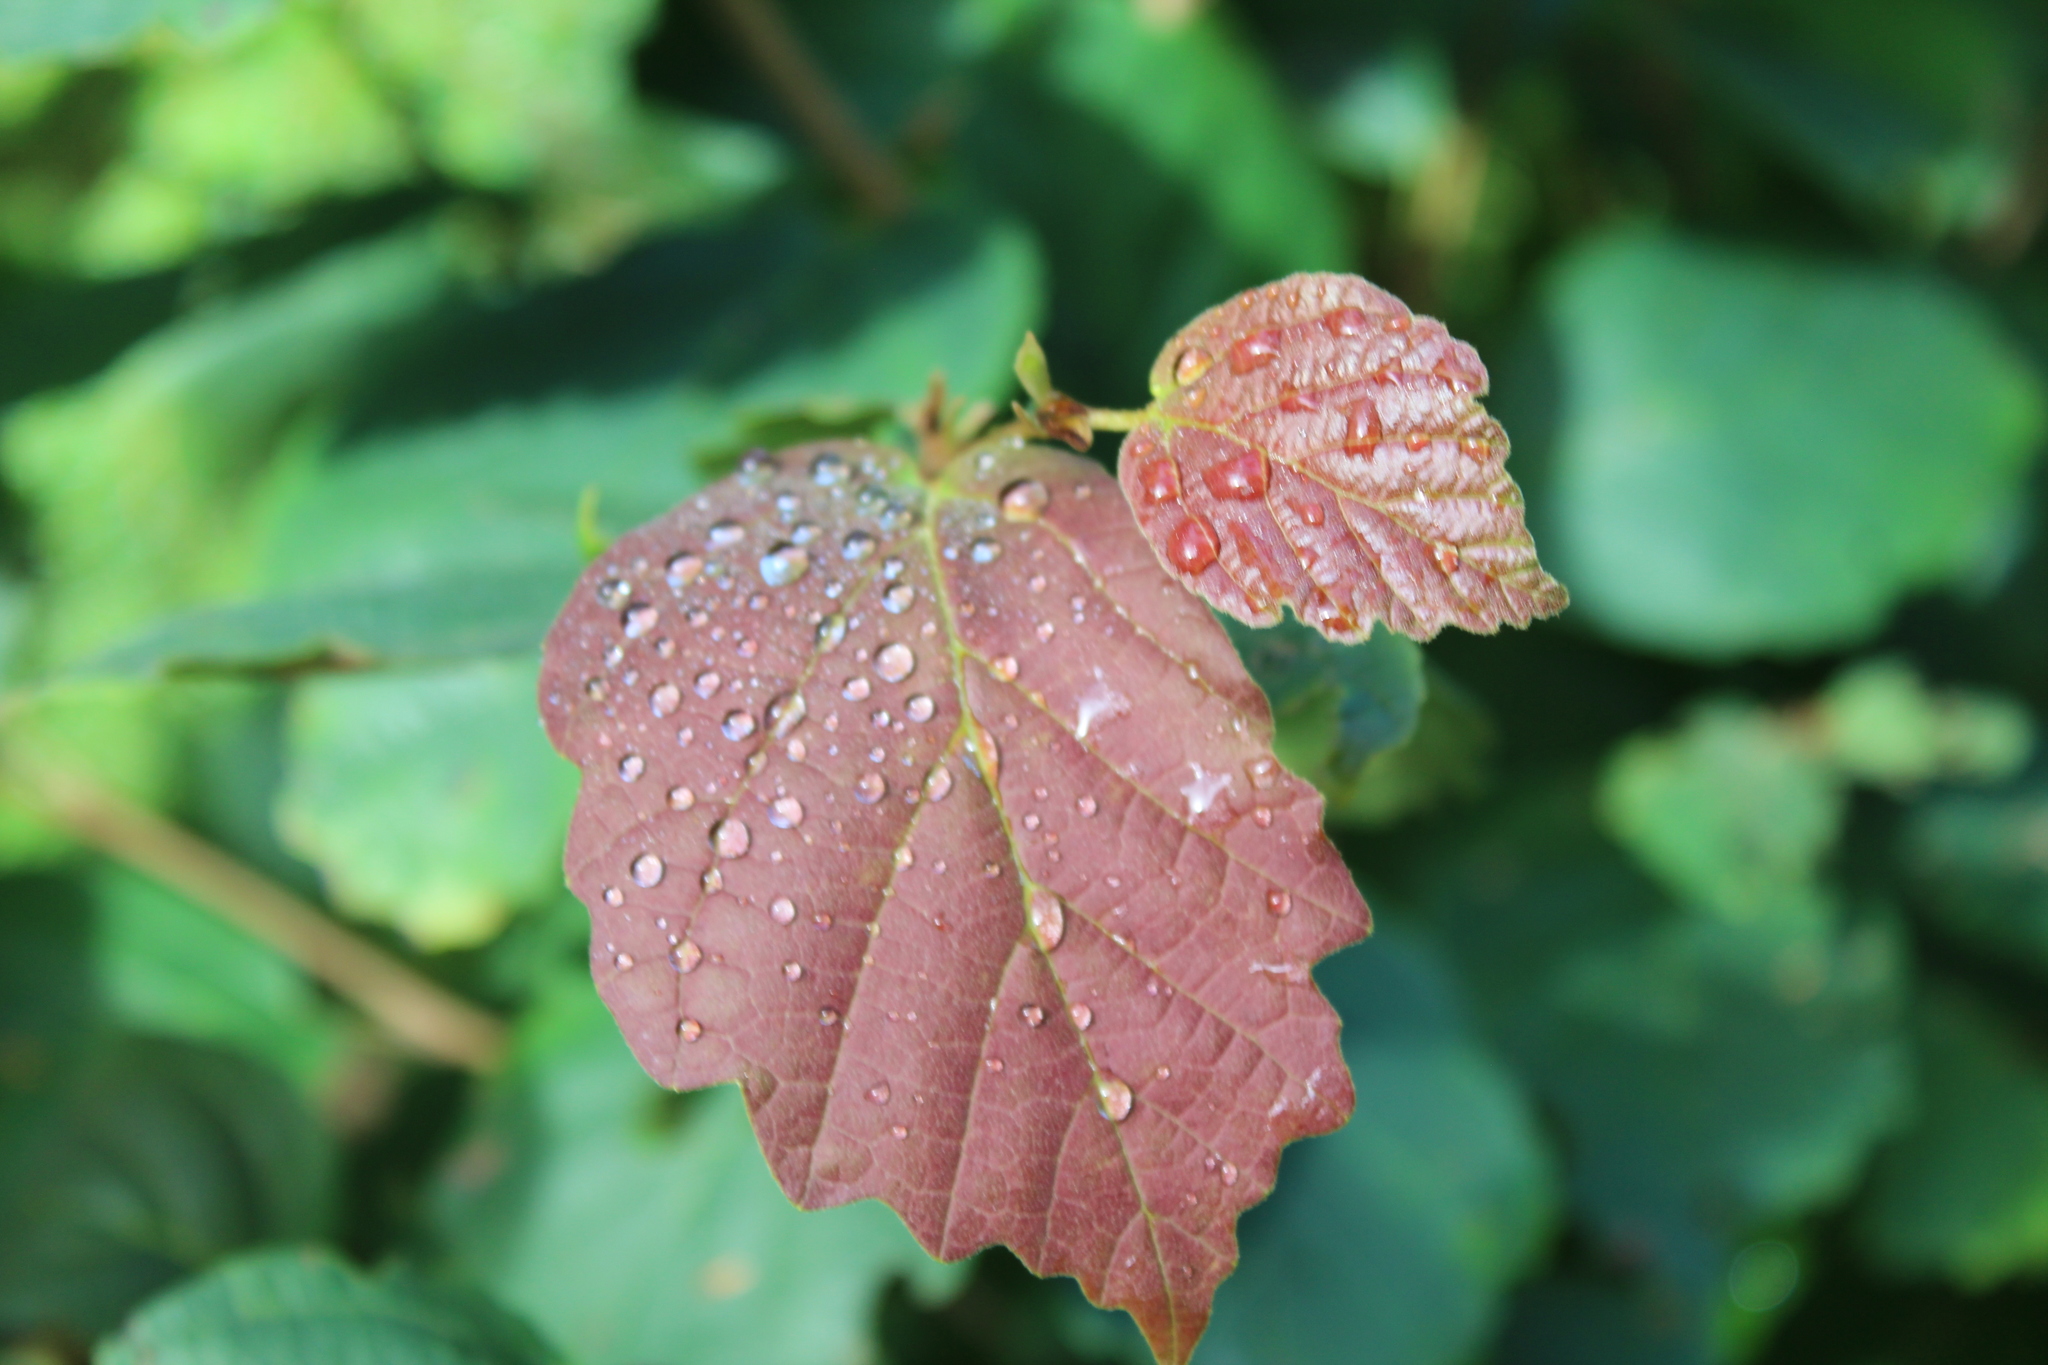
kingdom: Plantae
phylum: Tracheophyta
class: Magnoliopsida
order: Saxifragales
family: Hamamelidaceae
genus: Hamamelis
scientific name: Hamamelis virginiana
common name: Witch-hazel
